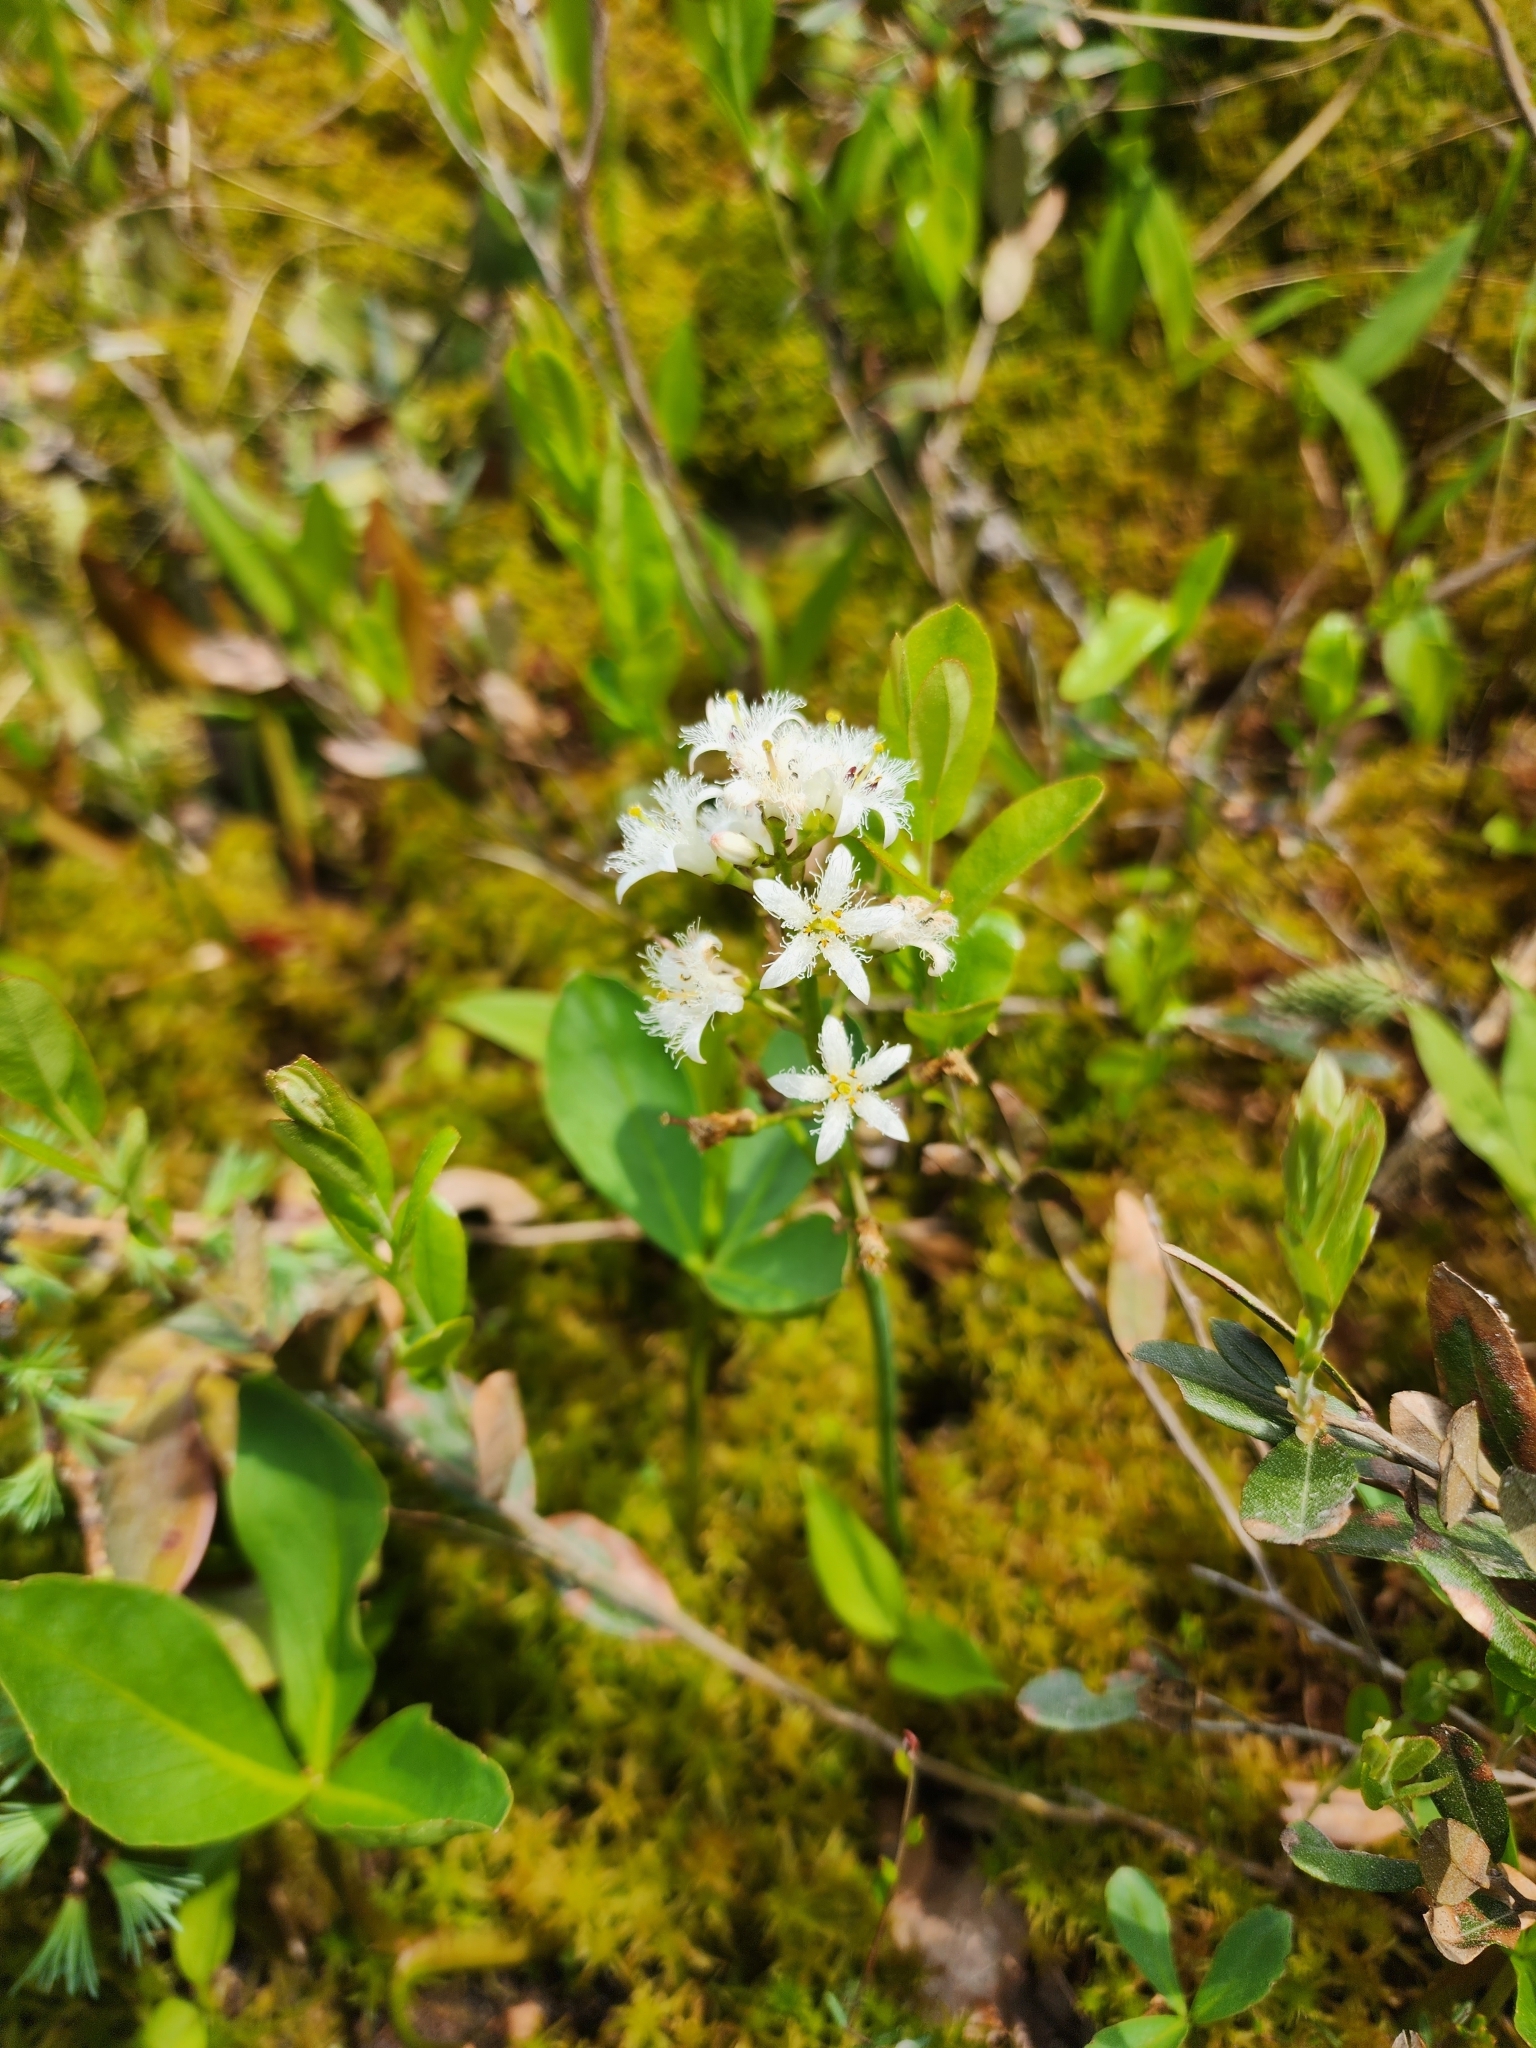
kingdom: Plantae
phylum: Tracheophyta
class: Magnoliopsida
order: Asterales
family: Menyanthaceae
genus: Menyanthes
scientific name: Menyanthes trifoliata
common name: Bogbean
